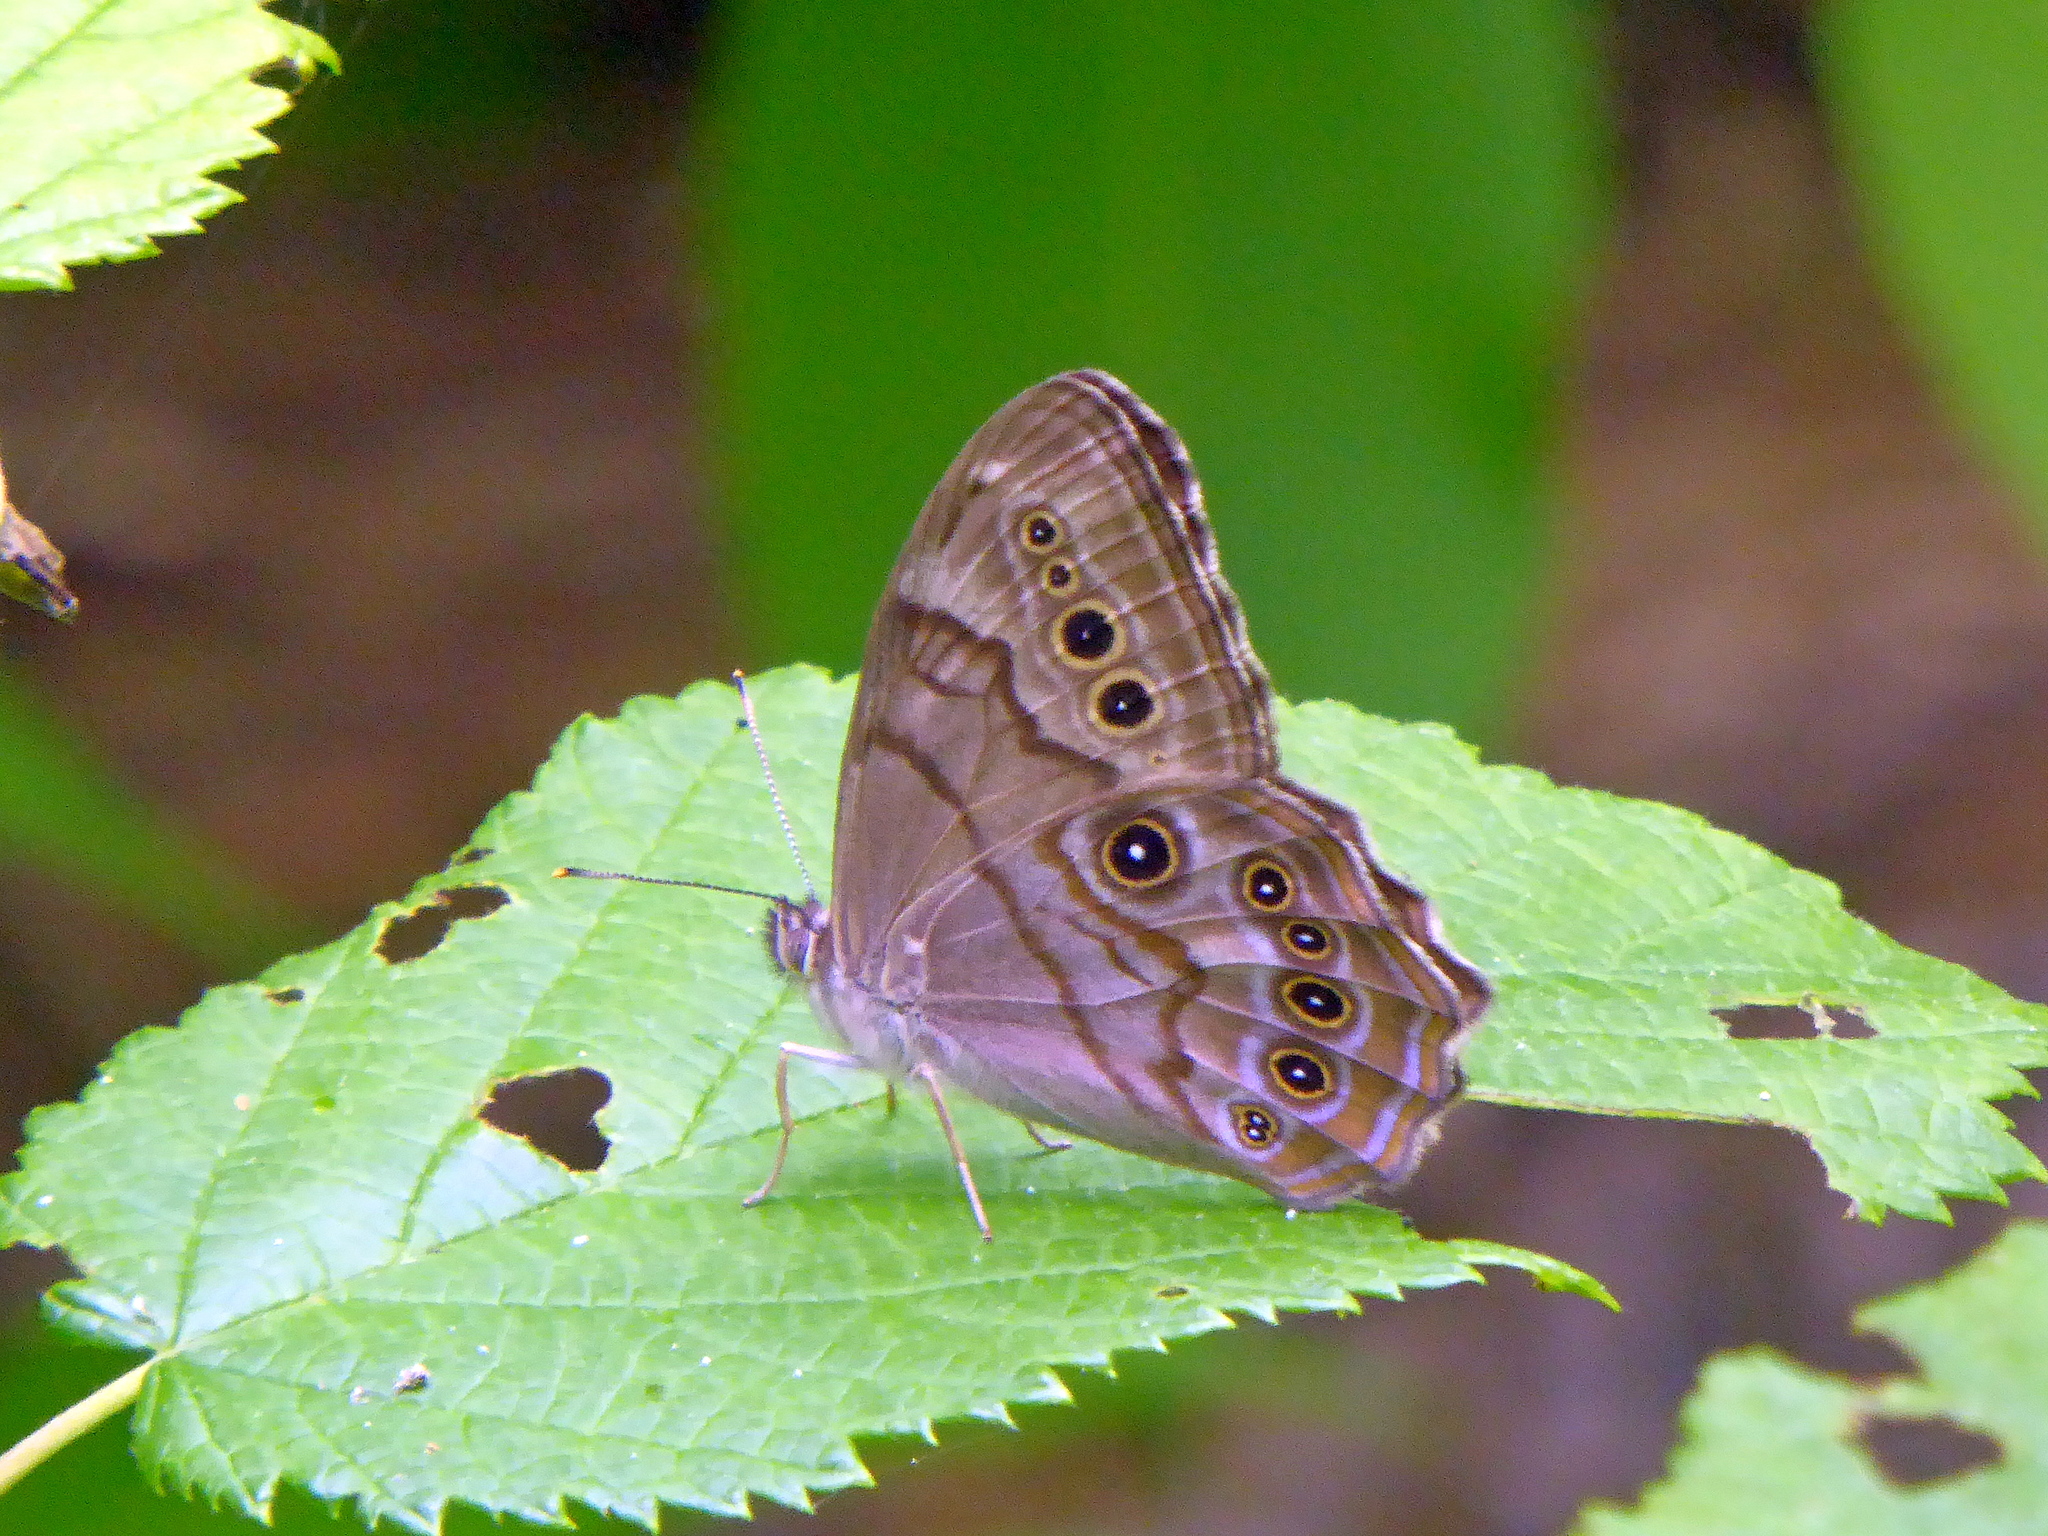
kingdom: Animalia
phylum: Arthropoda
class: Insecta
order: Lepidoptera
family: Nymphalidae
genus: Lethe
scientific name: Lethe anthedon
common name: Northern pearly-eye
